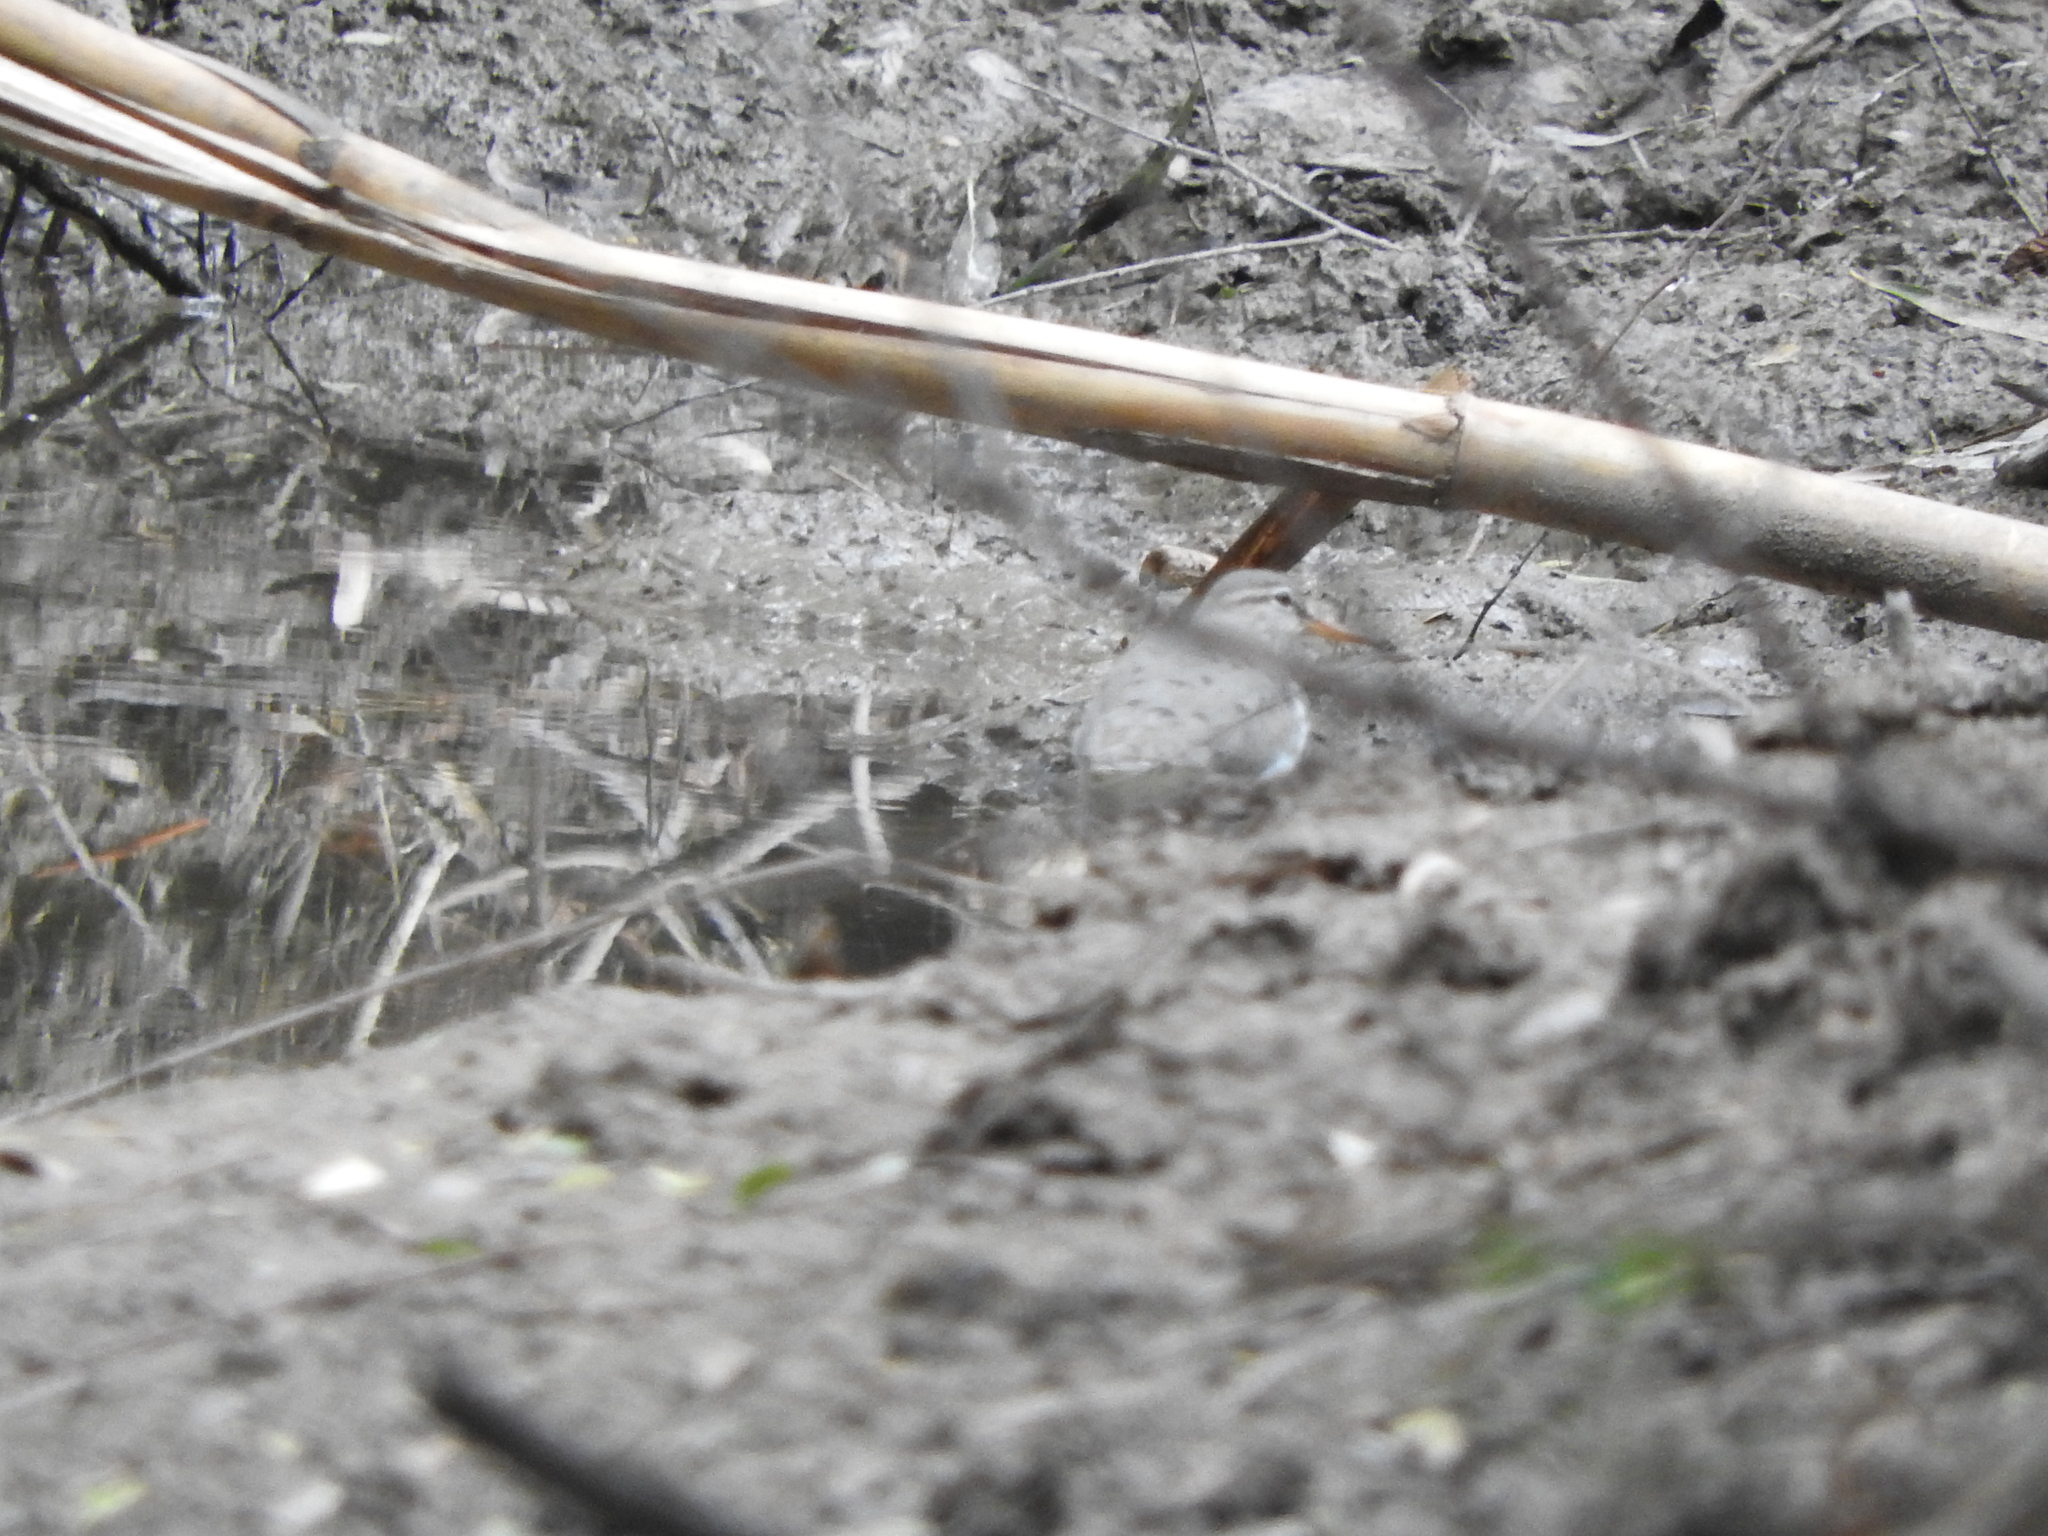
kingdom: Animalia
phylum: Chordata
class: Aves
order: Charadriiformes
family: Scolopacidae
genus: Actitis
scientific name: Actitis macularius
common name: Spotted sandpiper
